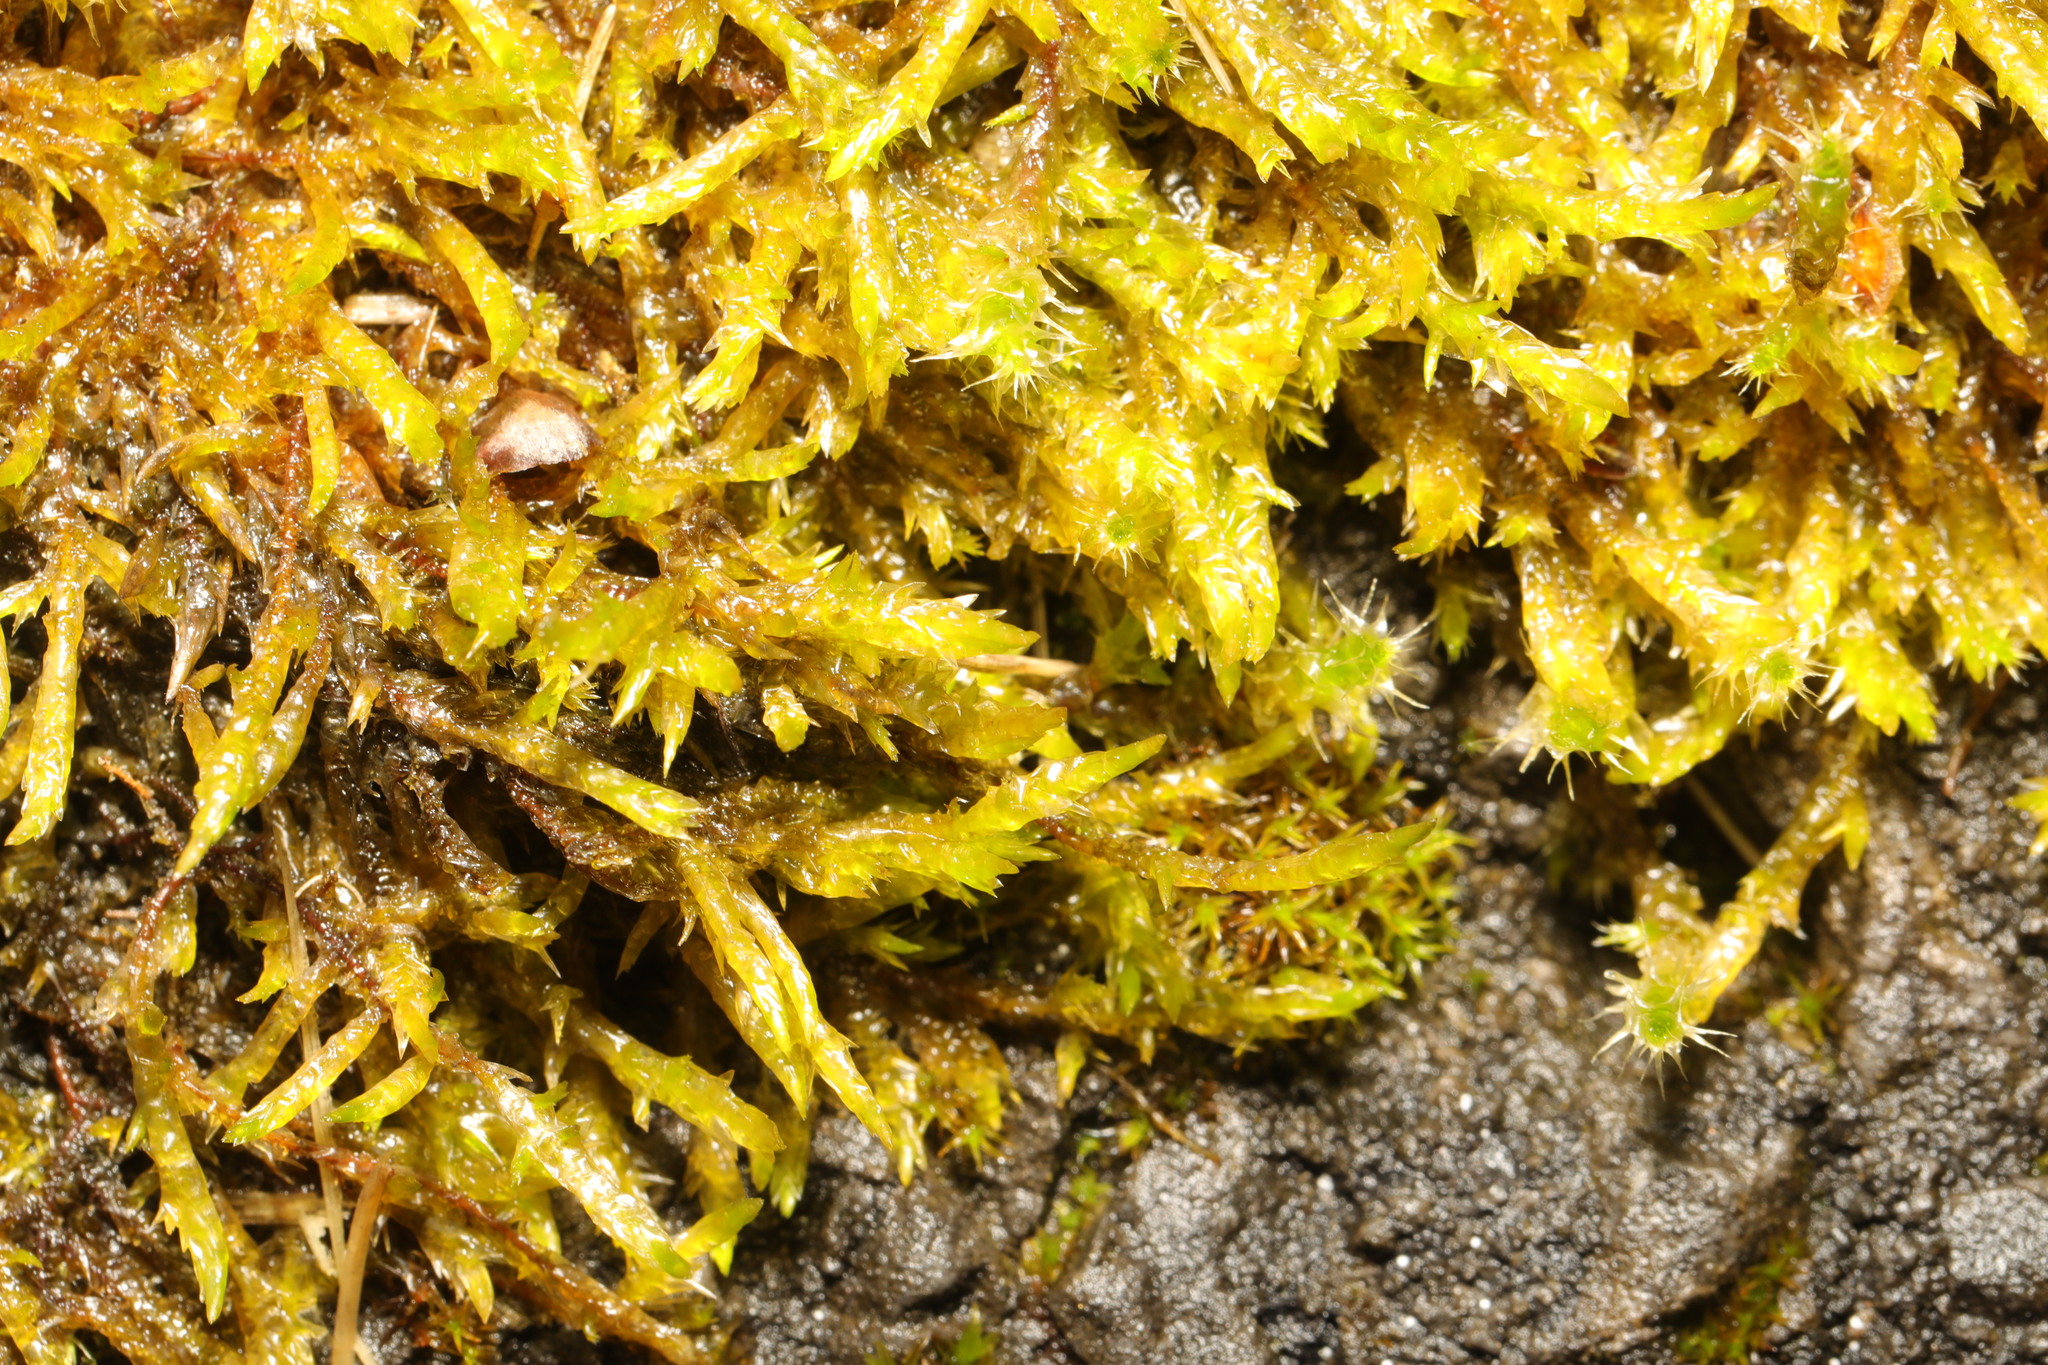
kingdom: Plantae
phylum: Bryophyta
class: Bryopsida
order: Hypnales
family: Pylaisiaceae
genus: Calliergonella
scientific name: Calliergonella cuspidata
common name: Common large wetland moss
